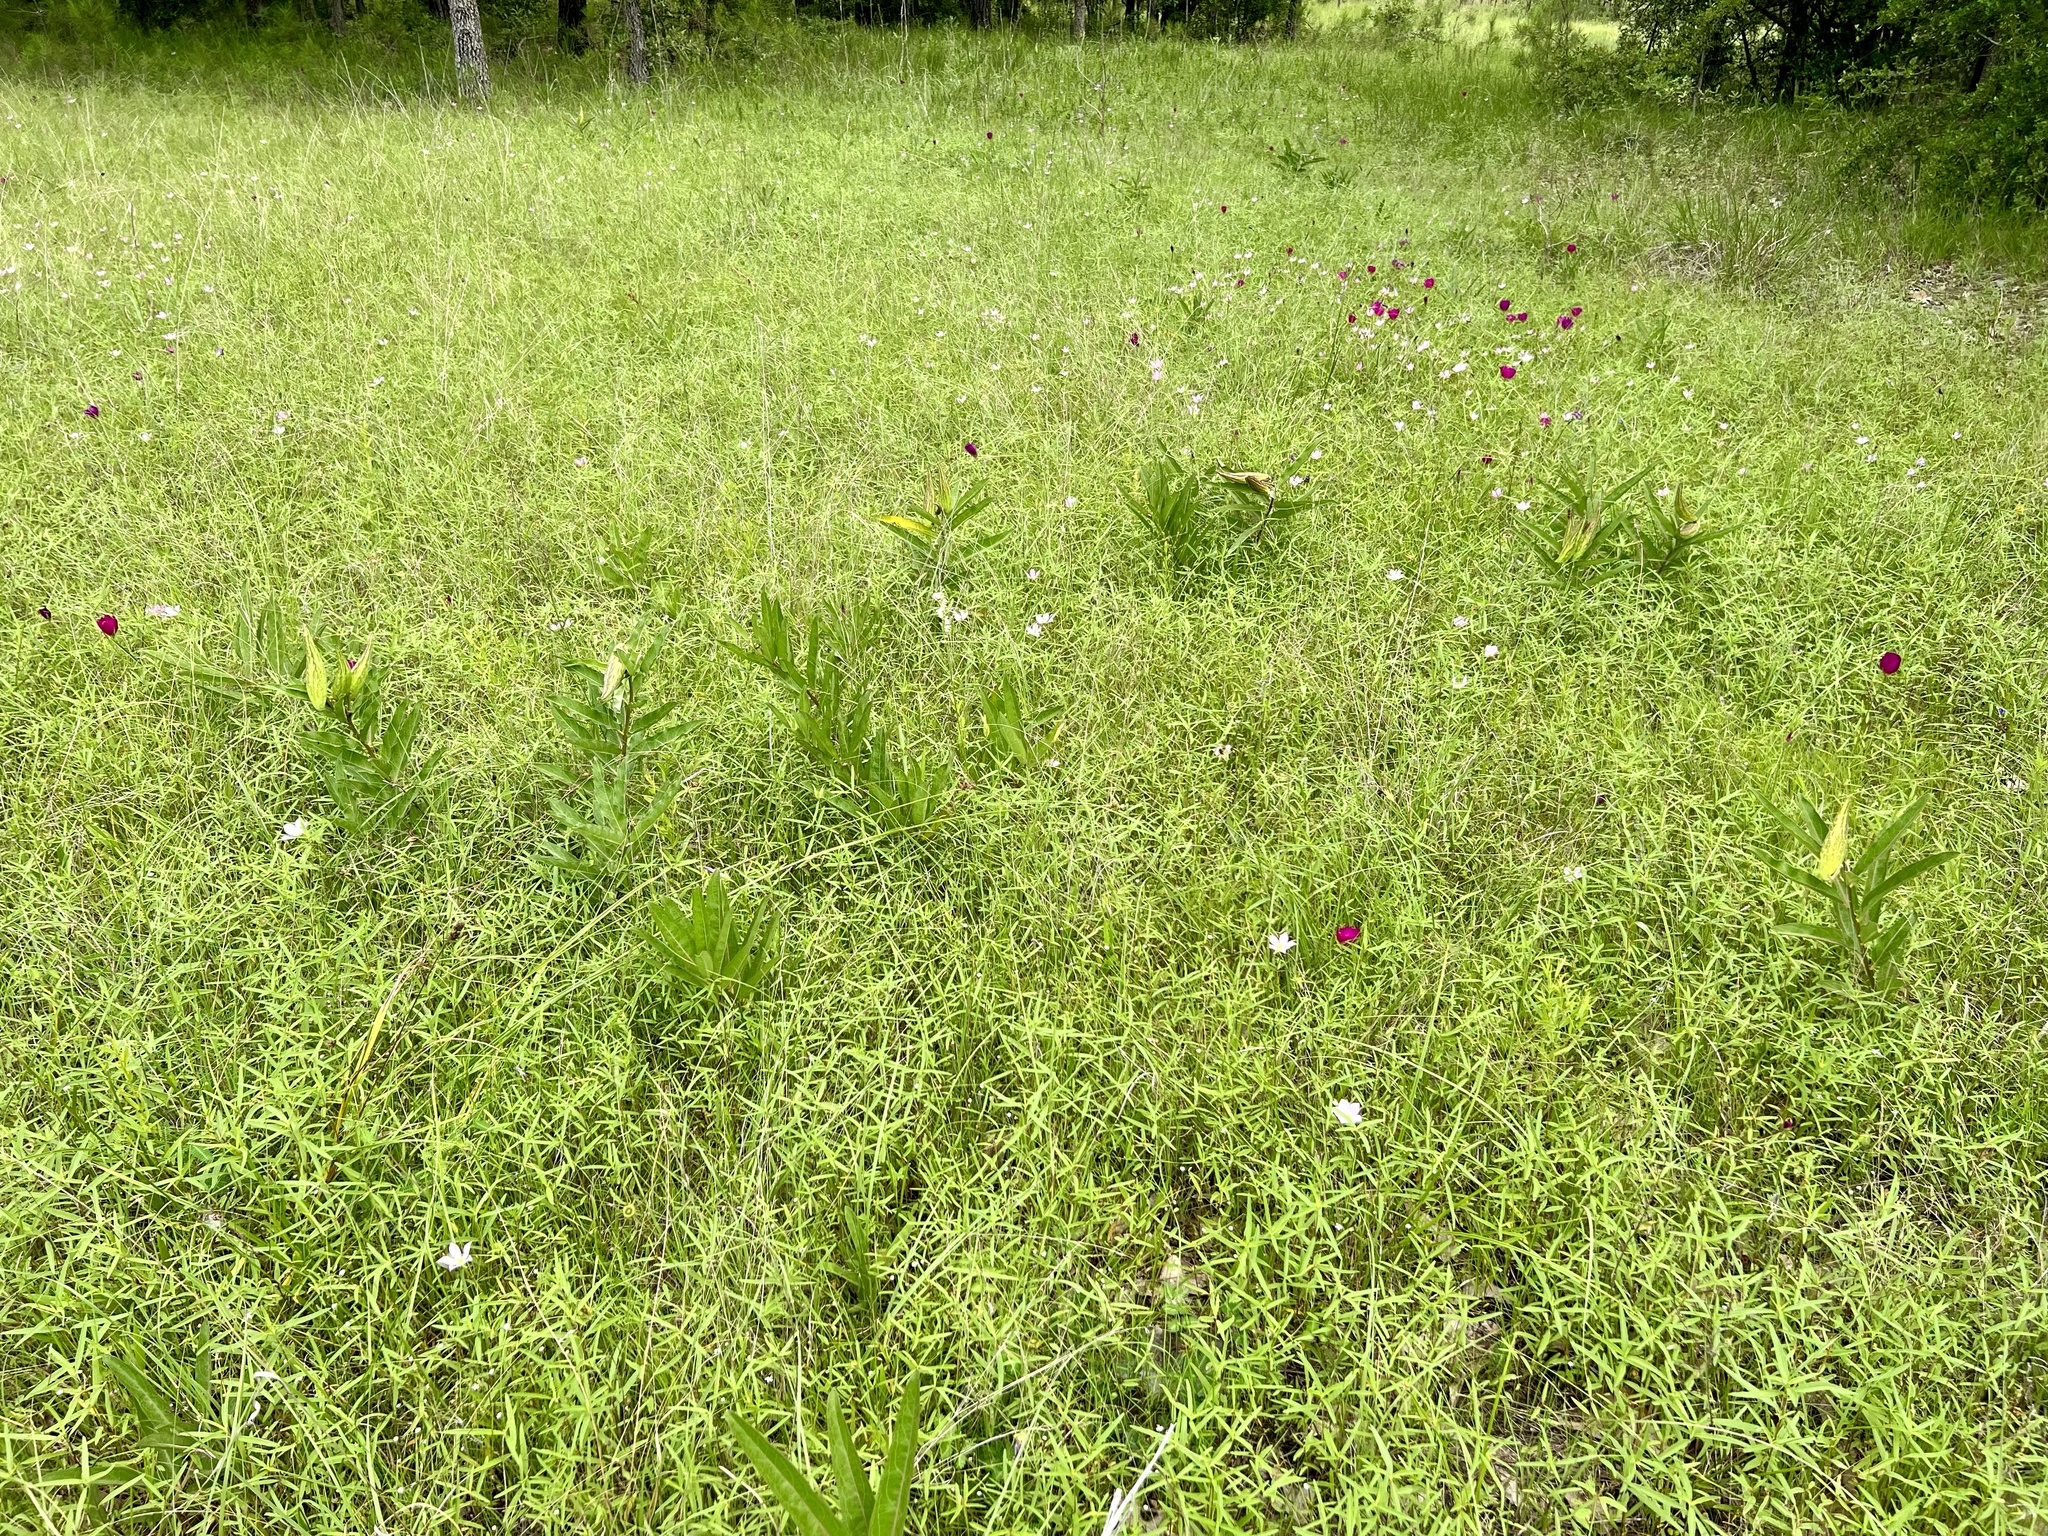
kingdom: Plantae
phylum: Tracheophyta
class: Magnoliopsida
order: Gentianales
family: Apocynaceae
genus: Asclepias
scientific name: Asclepias viridis
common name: Antelope-horns
